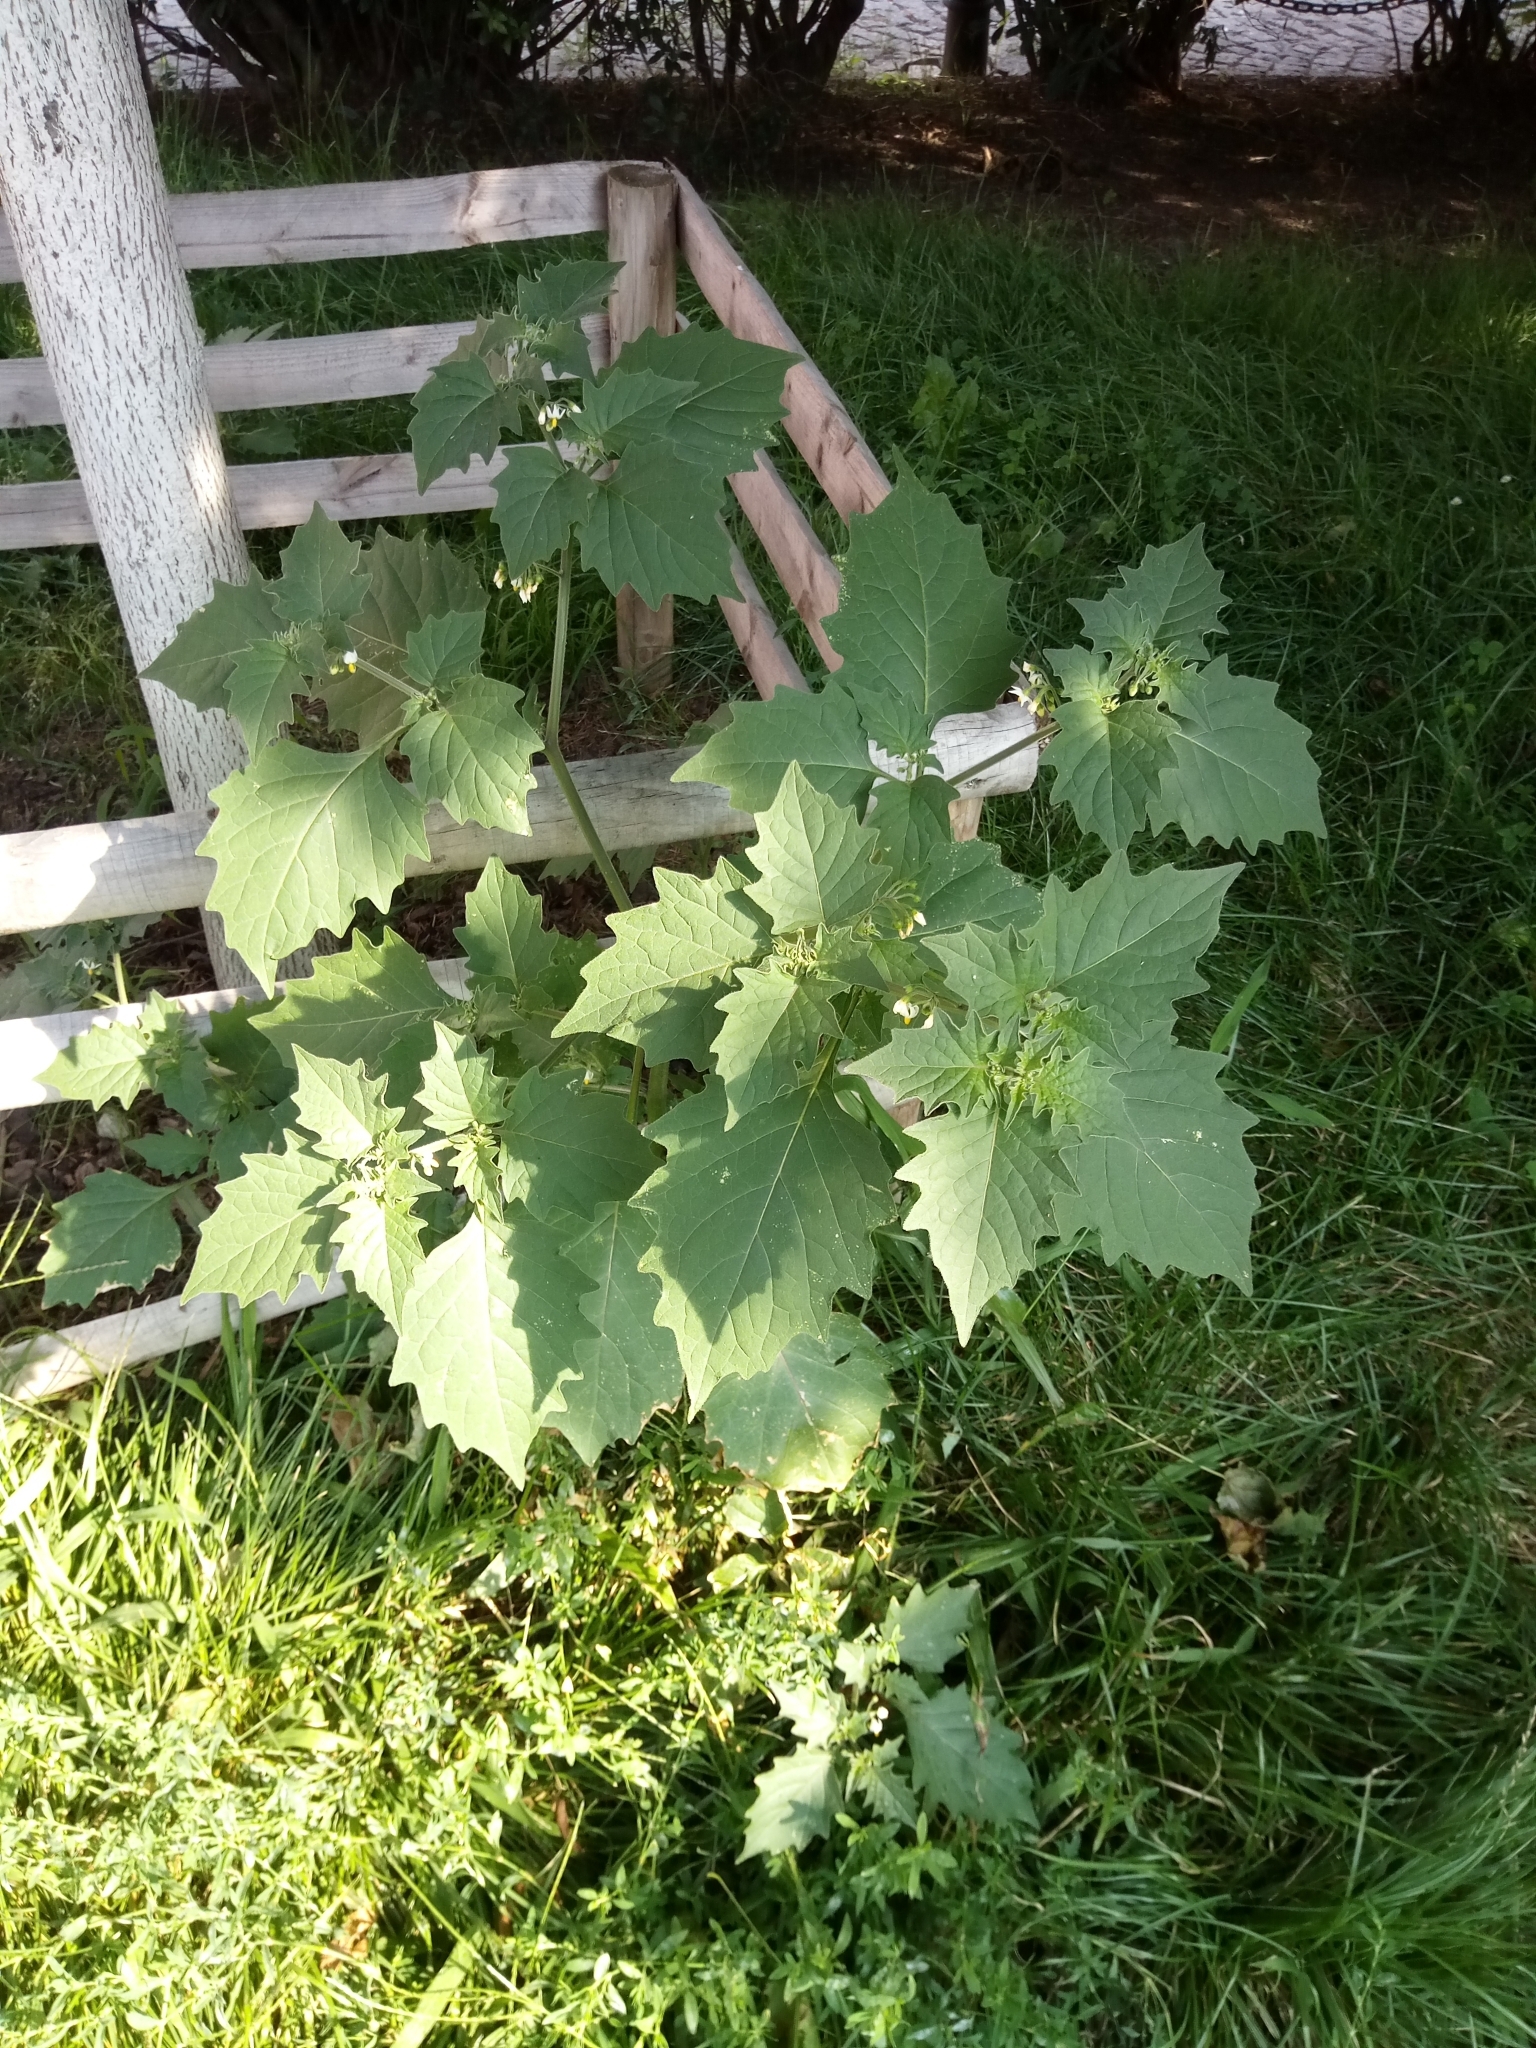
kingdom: Plantae
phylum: Tracheophyta
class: Magnoliopsida
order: Solanales
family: Solanaceae
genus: Solanum
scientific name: Solanum decipiens
